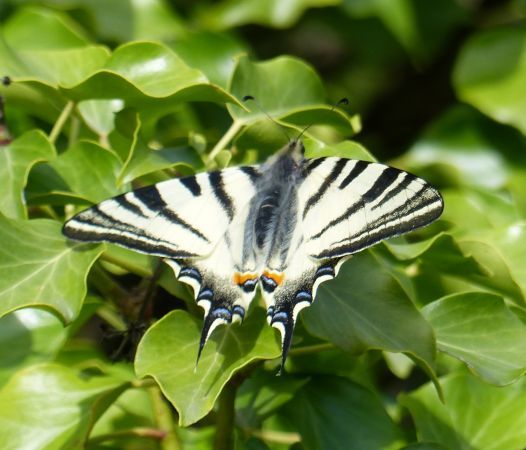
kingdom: Animalia
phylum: Arthropoda
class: Insecta
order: Lepidoptera
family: Papilionidae
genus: Iphiclides
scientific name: Iphiclides podalirius
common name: Scarce swallowtail
